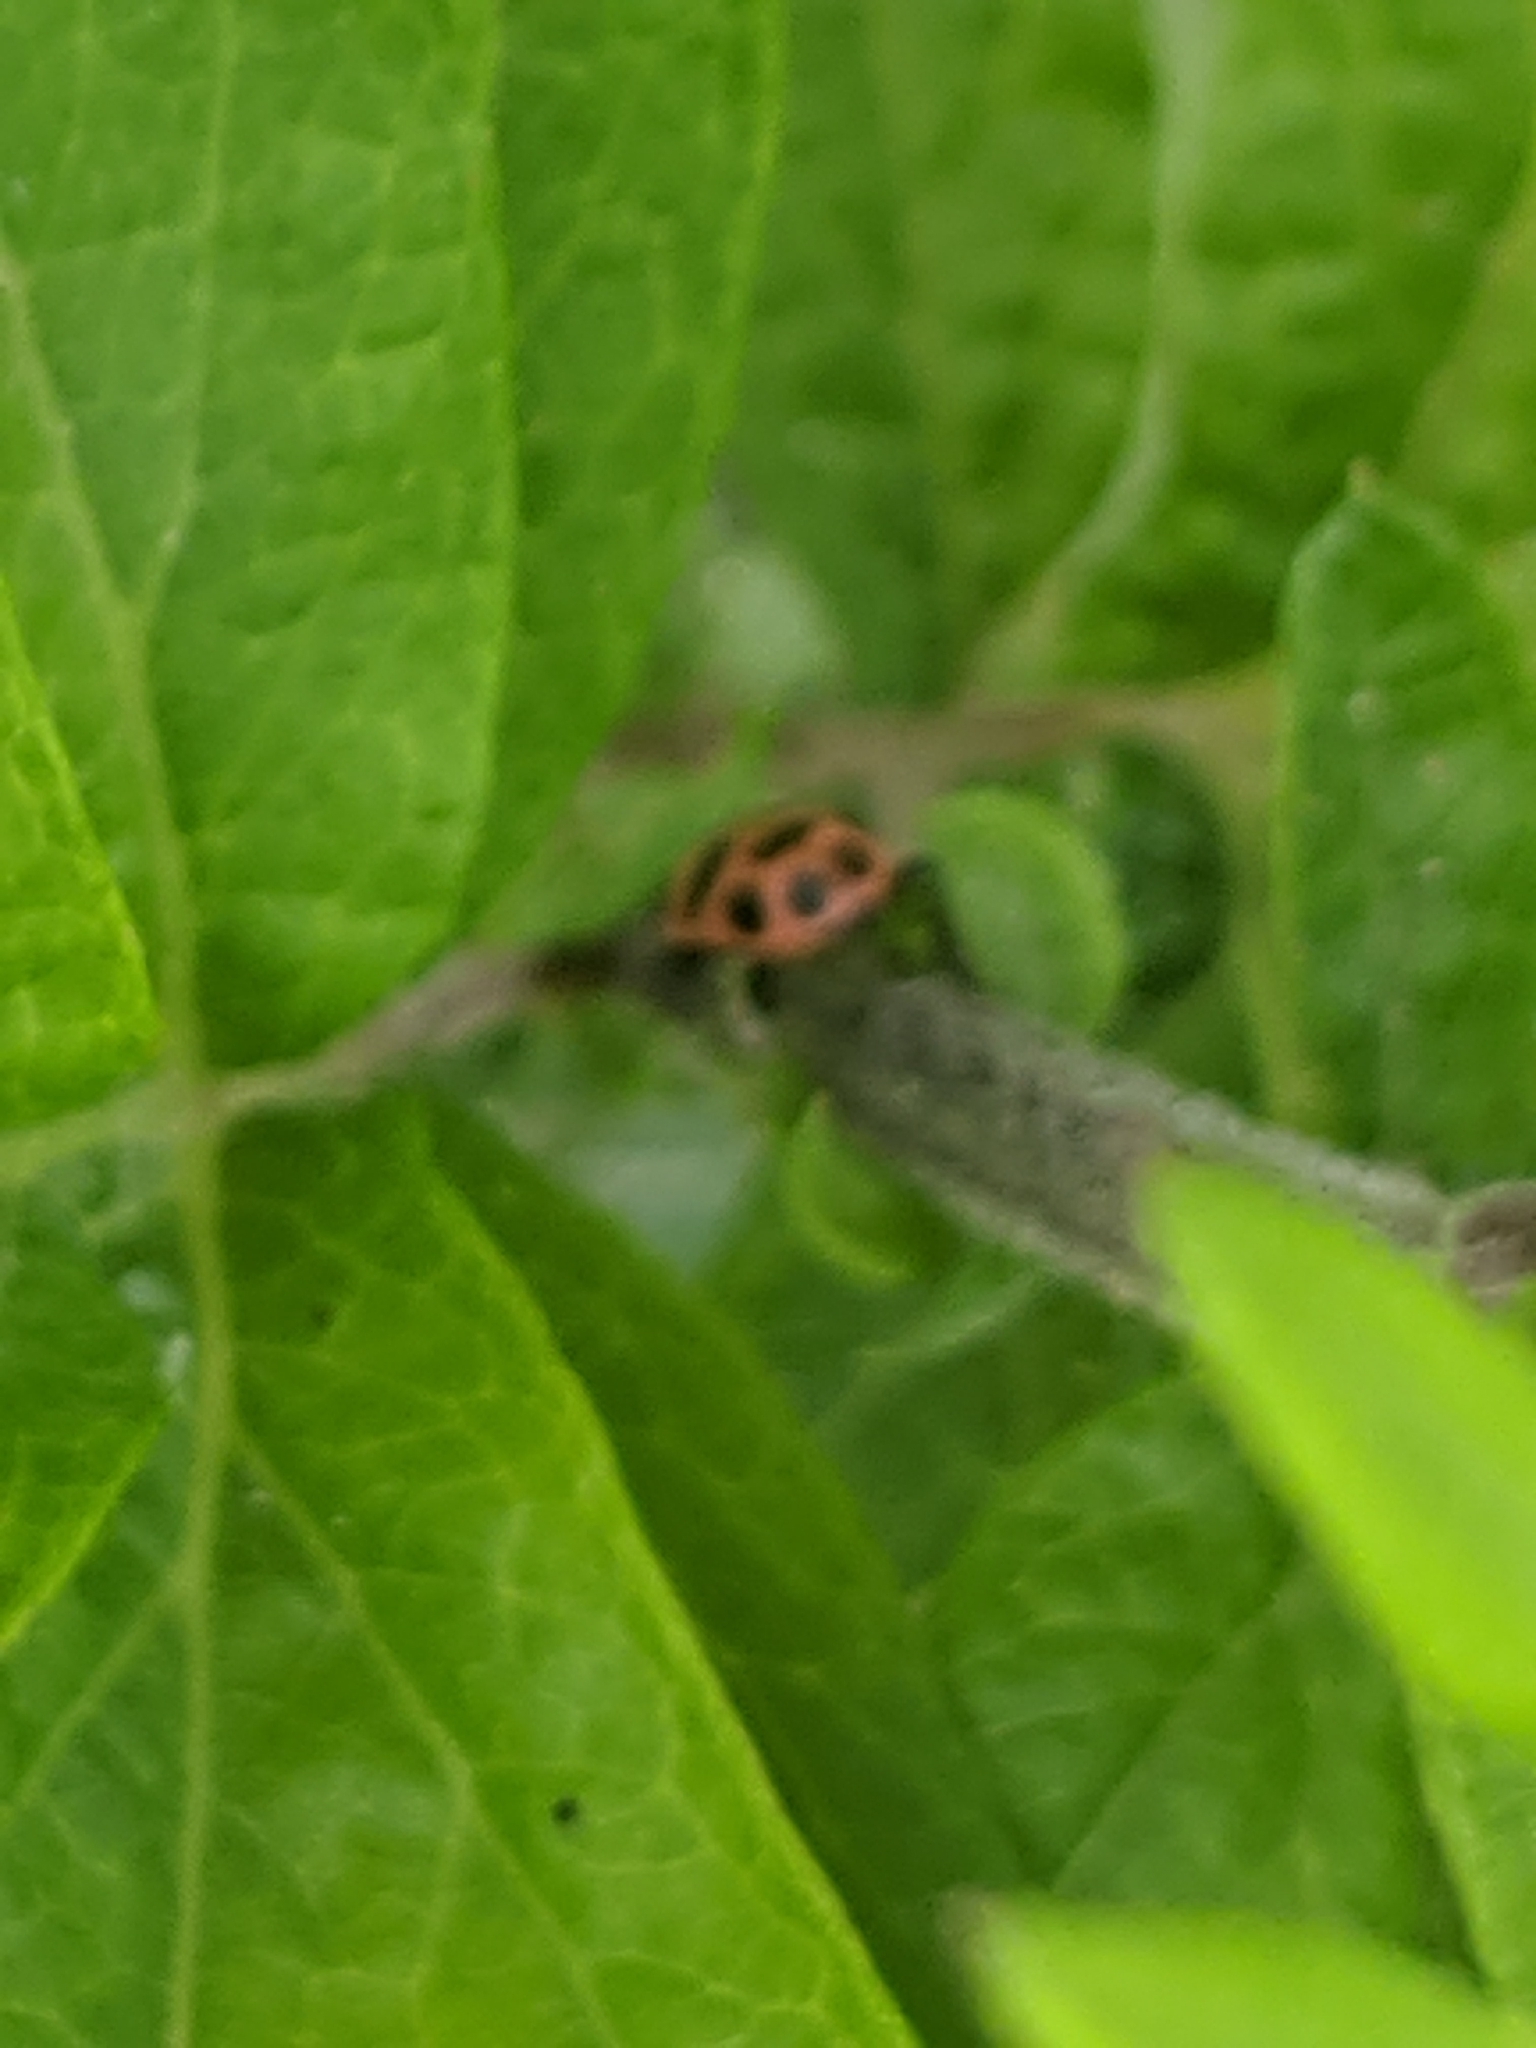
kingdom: Animalia
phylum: Arthropoda
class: Insecta
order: Coleoptera
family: Coccinellidae
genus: Coleomegilla
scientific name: Coleomegilla maculata
